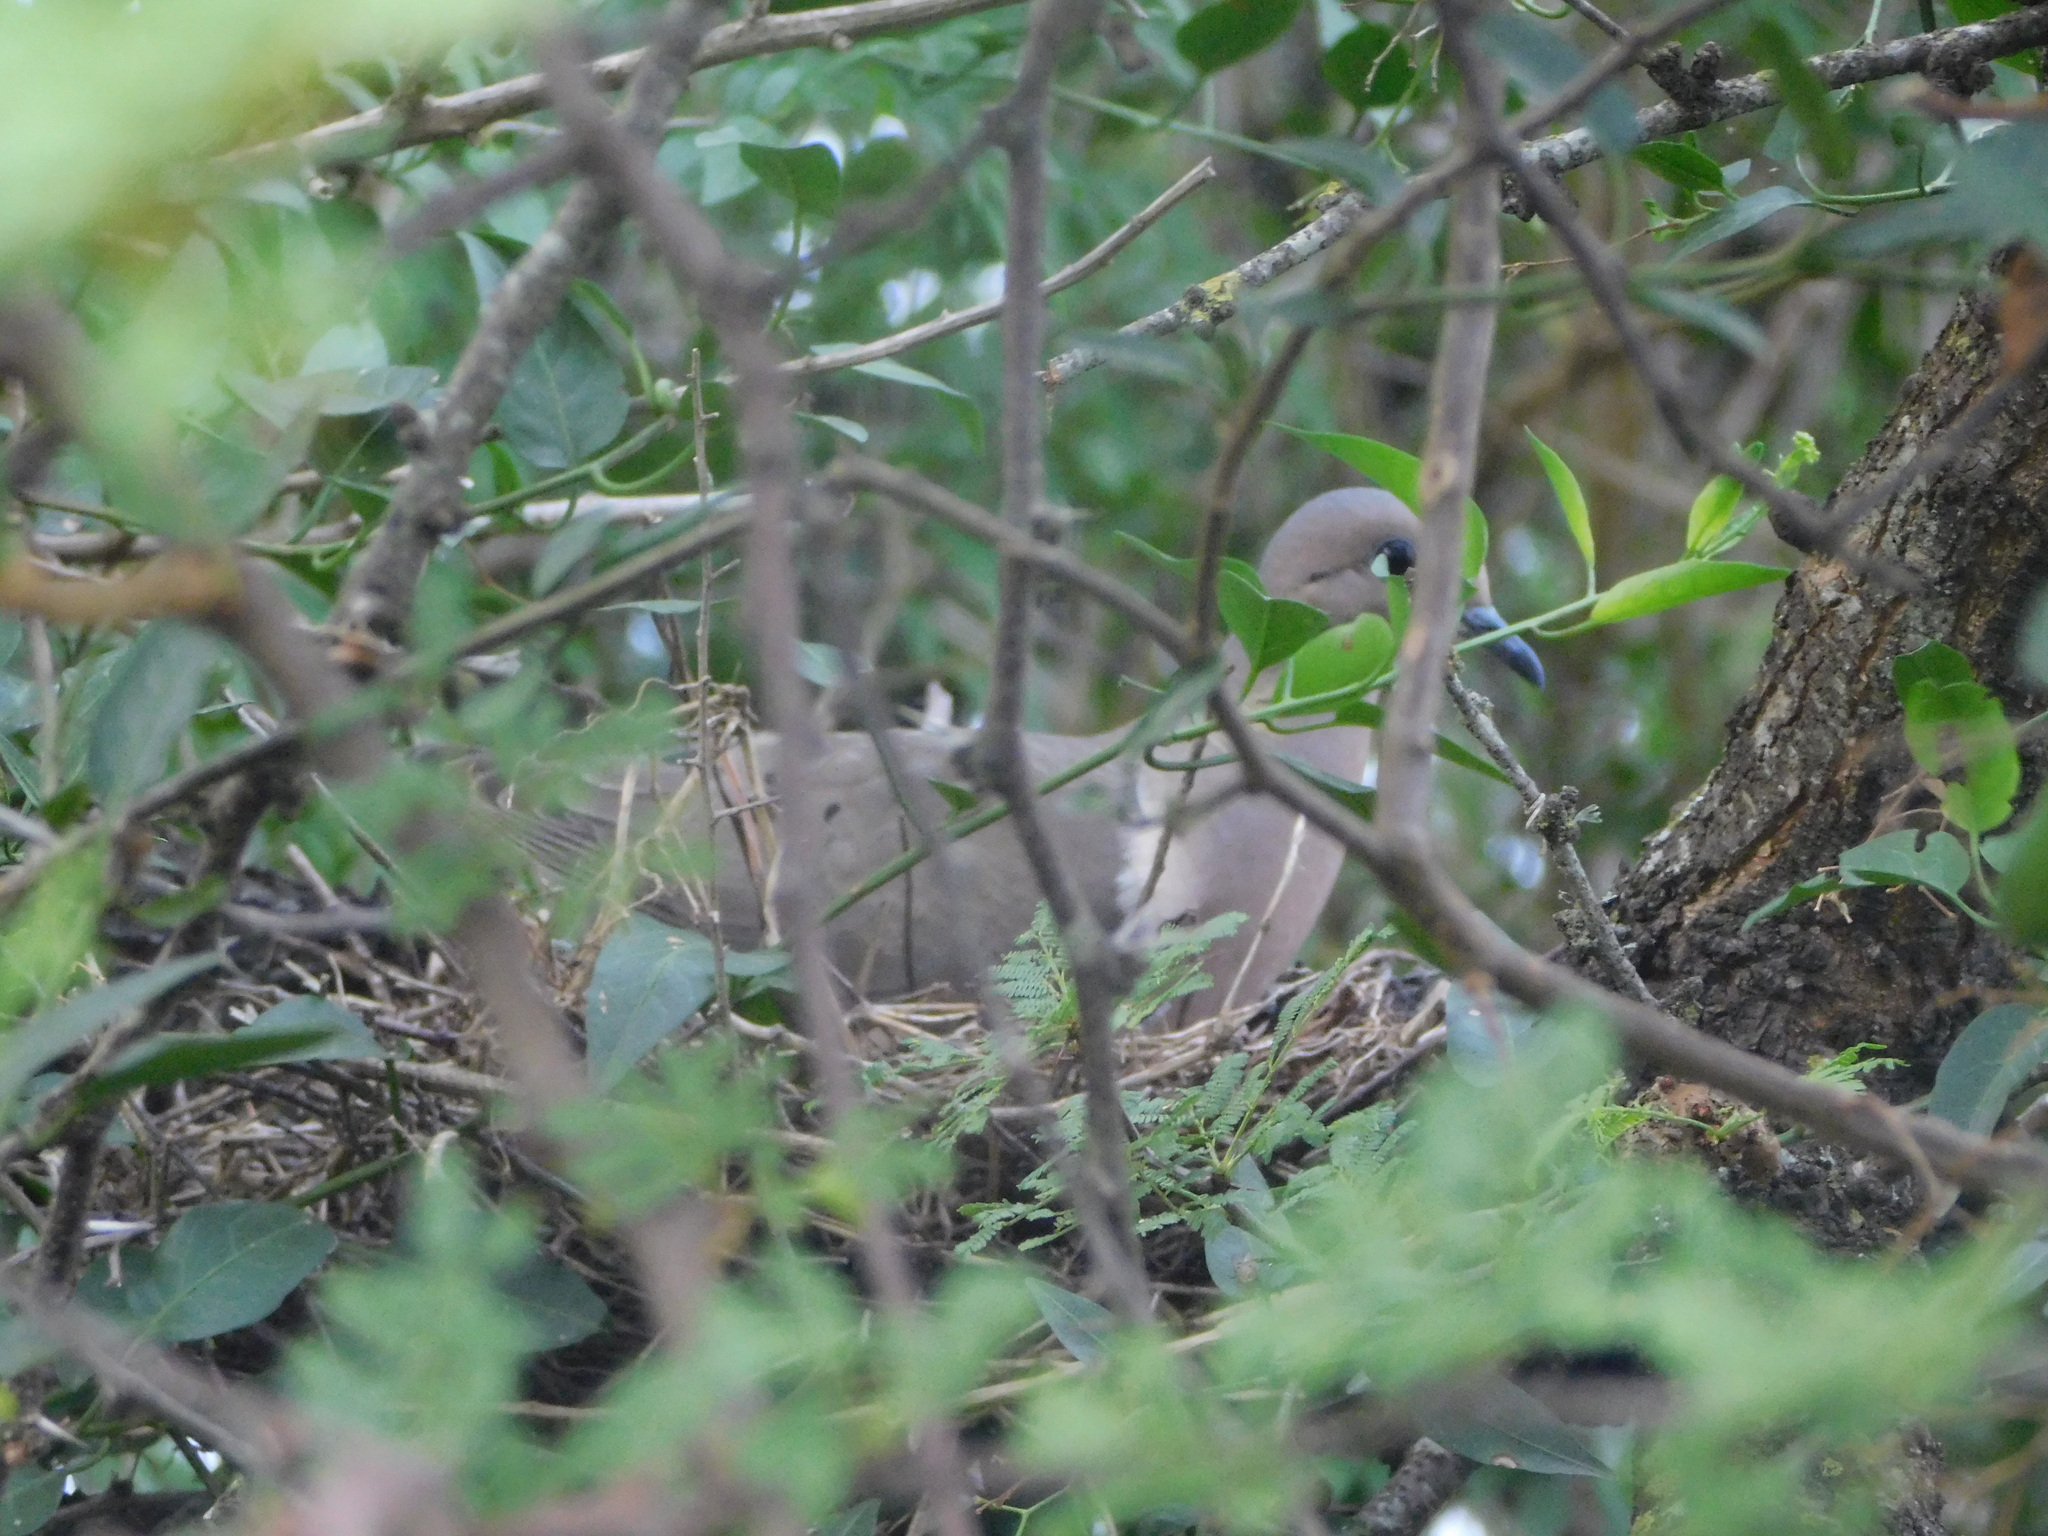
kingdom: Animalia
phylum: Chordata
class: Aves
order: Columbiformes
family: Columbidae
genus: Zenaida
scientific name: Zenaida auriculata
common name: Eared dove
